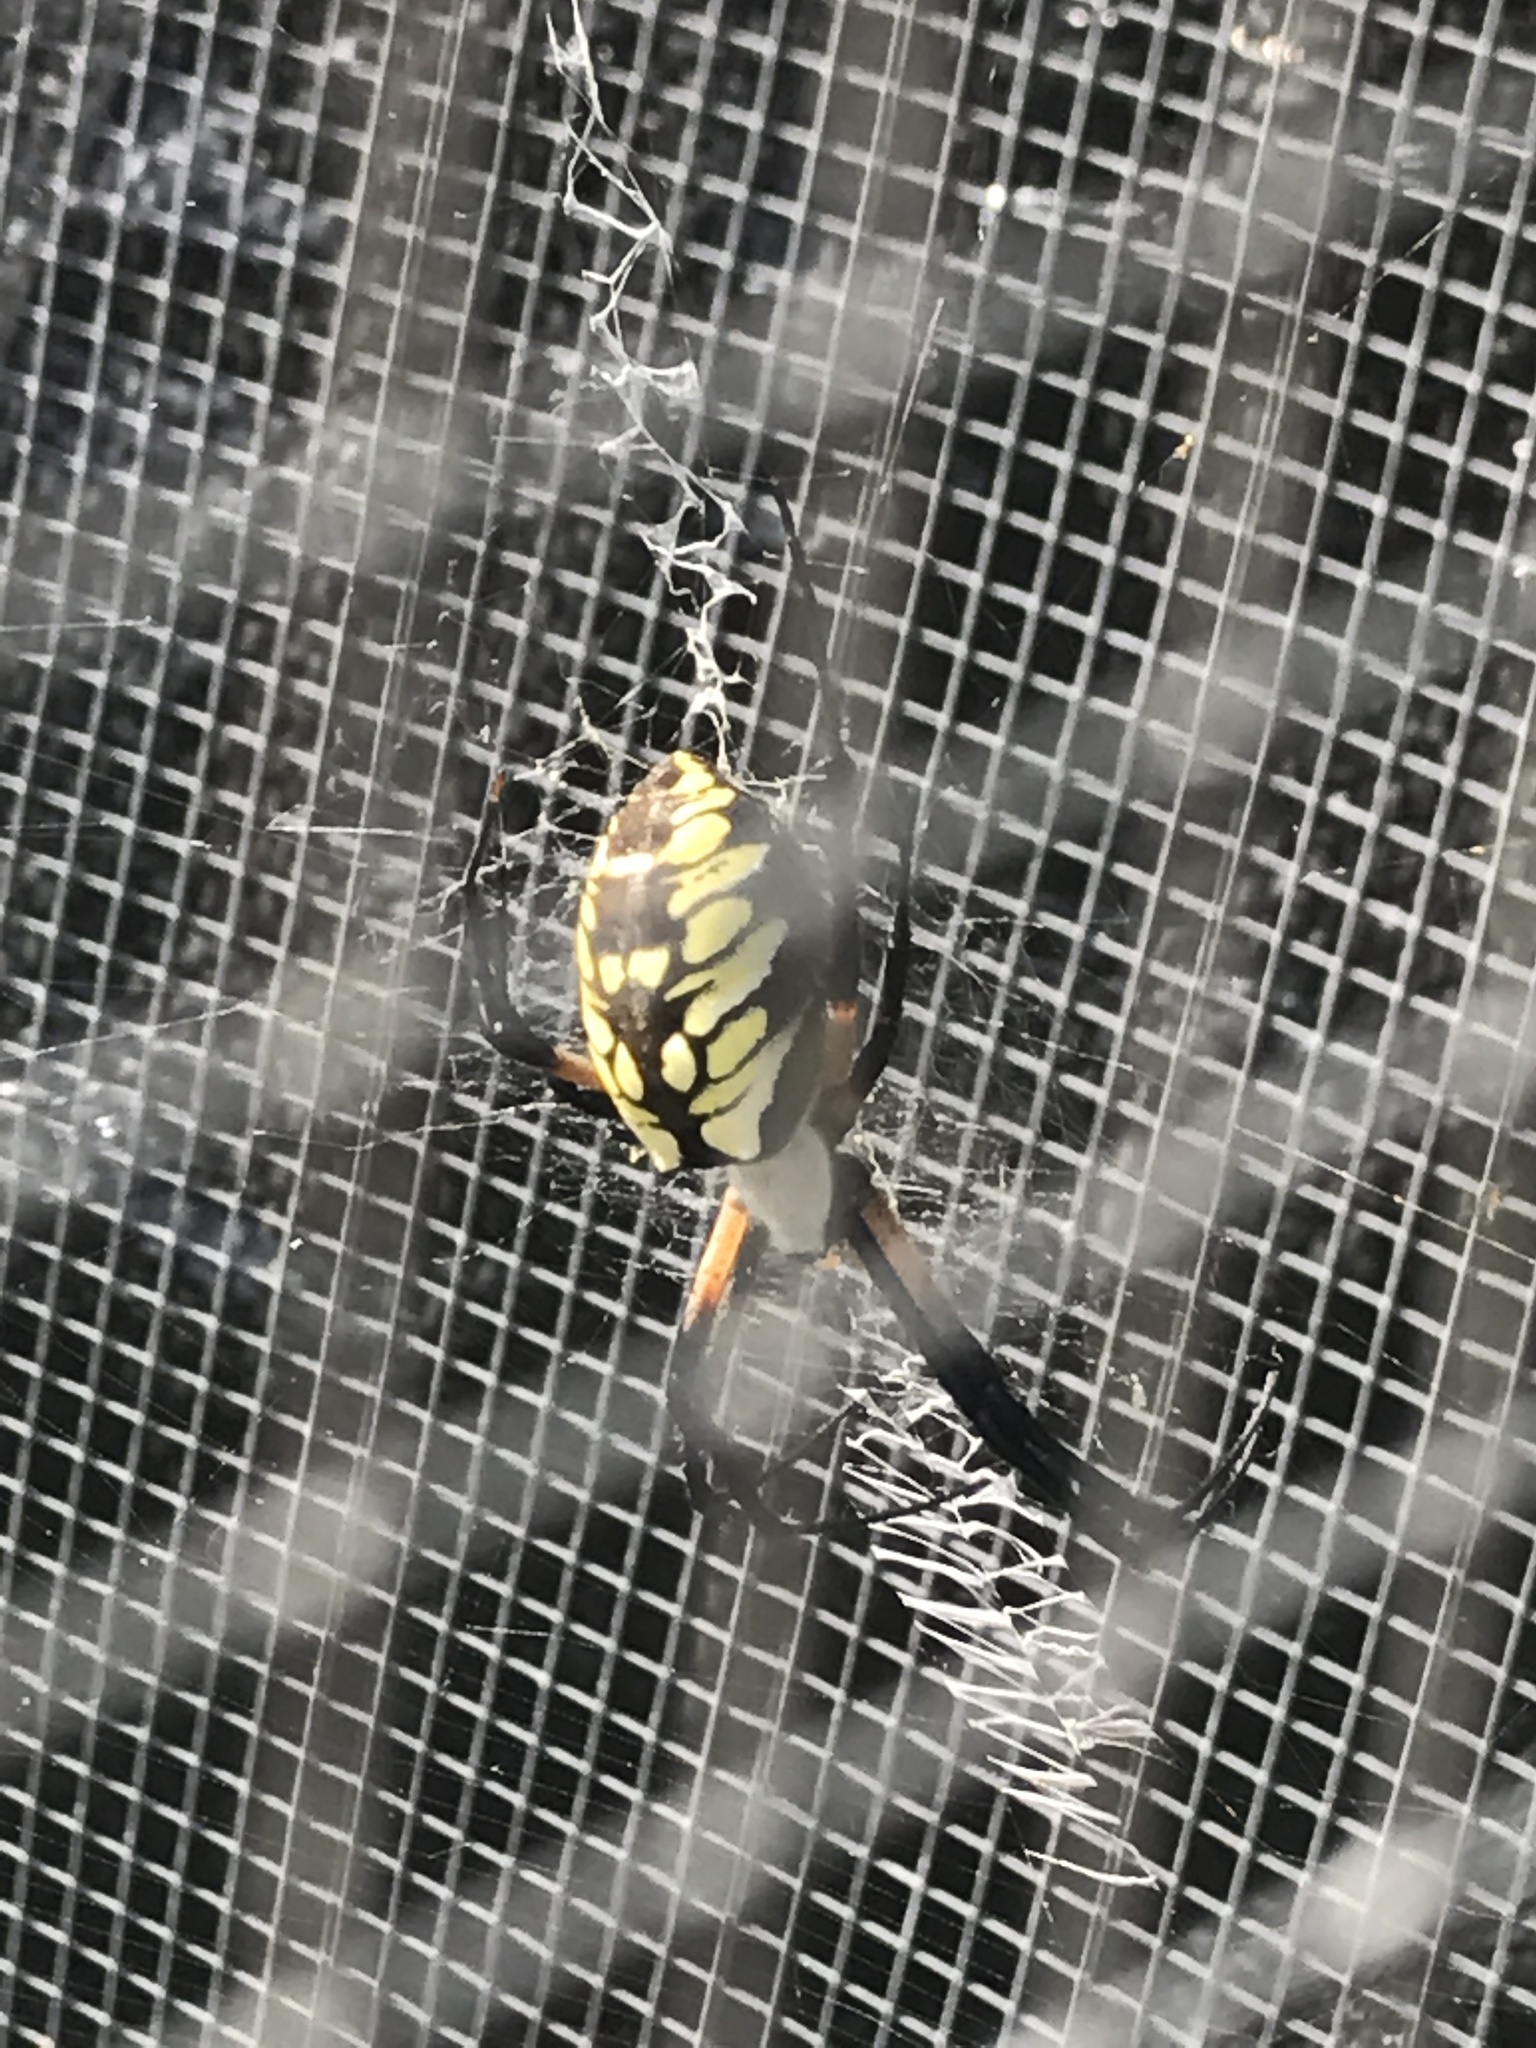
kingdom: Animalia
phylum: Arthropoda
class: Arachnida
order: Araneae
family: Araneidae
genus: Argiope
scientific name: Argiope aurantia
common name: Orb weavers
